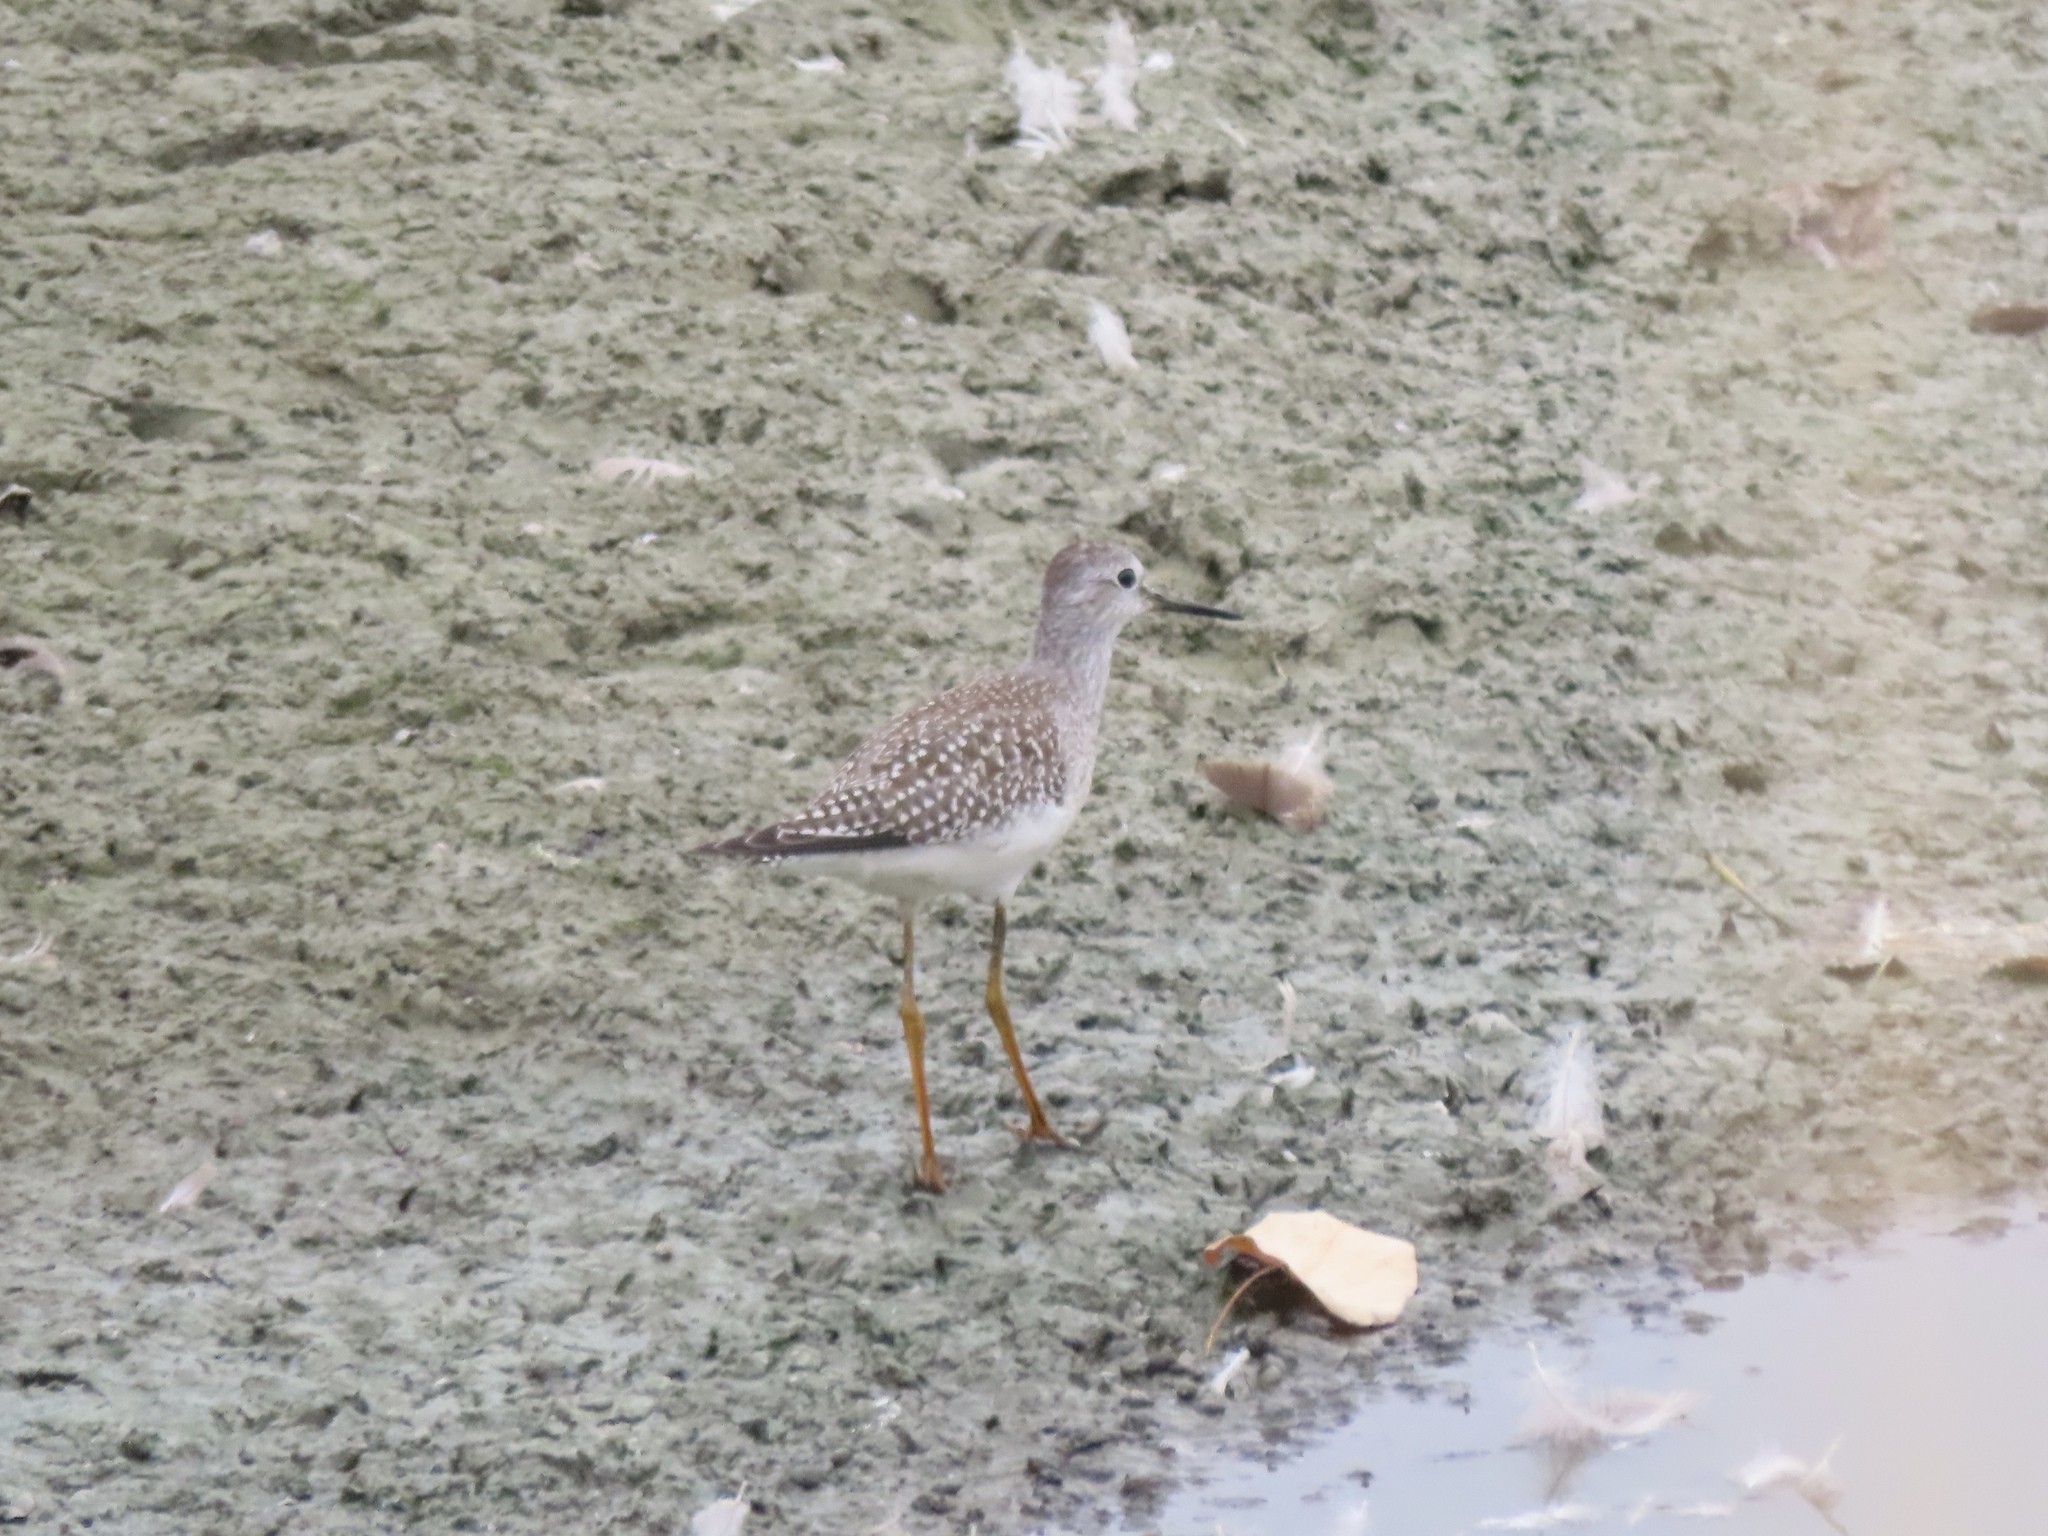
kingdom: Animalia
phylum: Chordata
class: Aves
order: Charadriiformes
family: Scolopacidae
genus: Tringa
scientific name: Tringa flavipes
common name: Lesser yellowlegs
